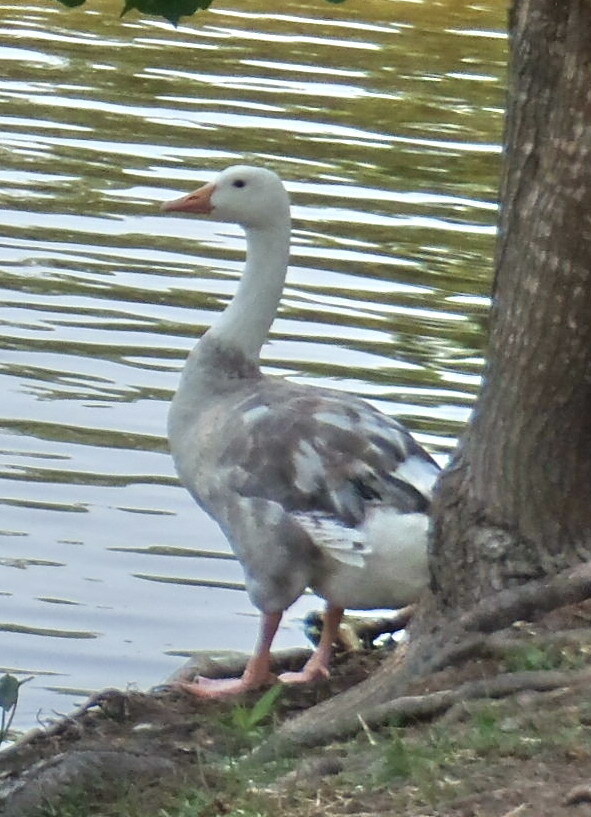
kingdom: Animalia
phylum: Chordata
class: Aves
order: Anseriformes
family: Anatidae
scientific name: Anatidae
